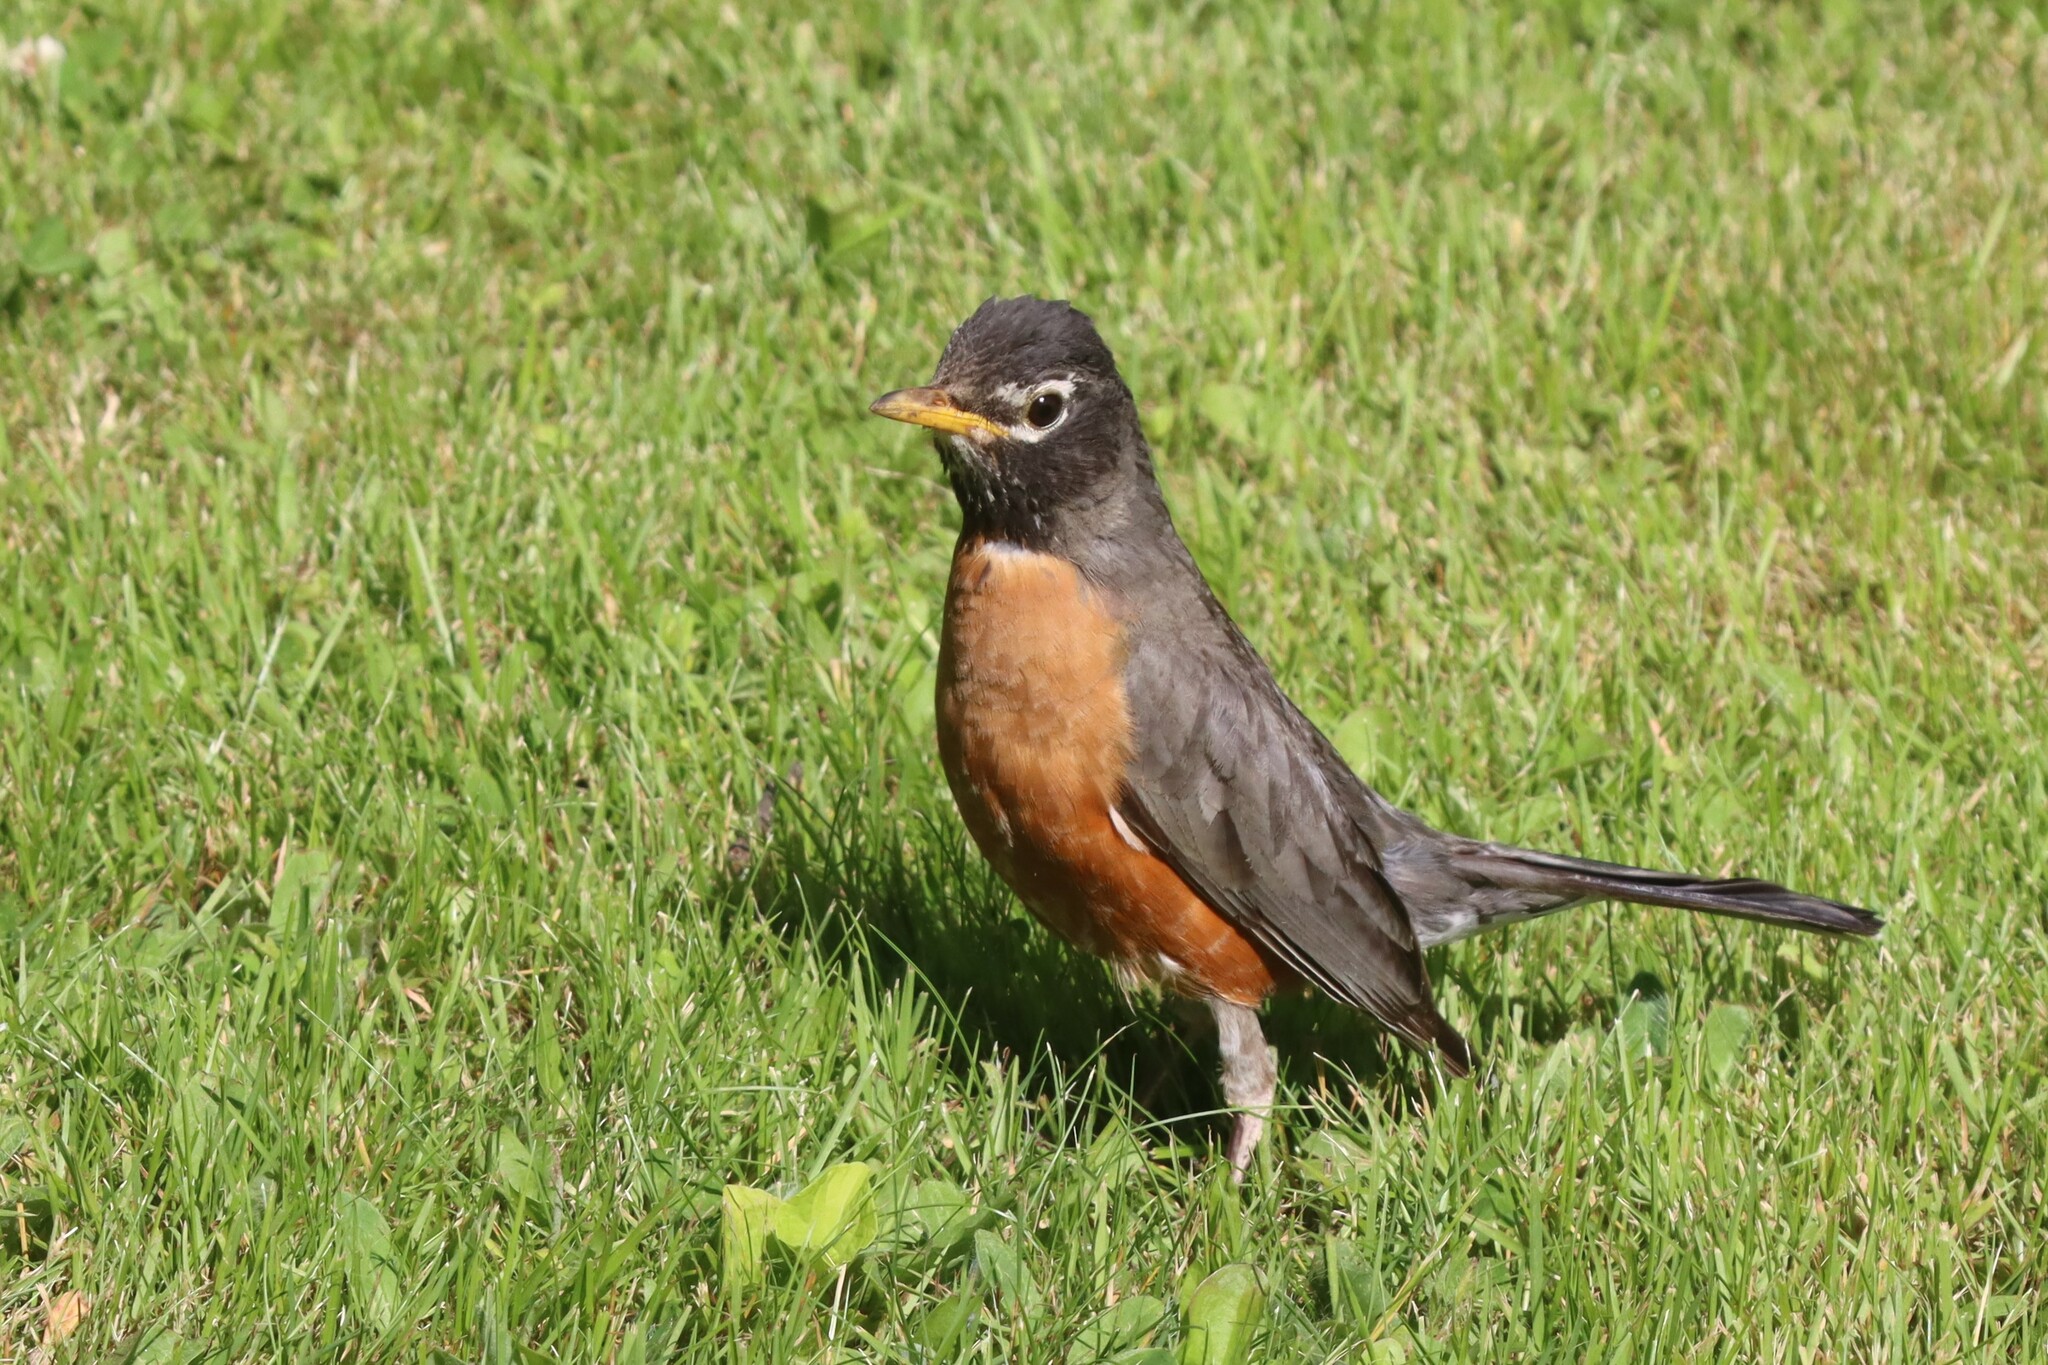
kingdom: Animalia
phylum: Chordata
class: Aves
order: Passeriformes
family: Turdidae
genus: Turdus
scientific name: Turdus migratorius
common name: American robin
